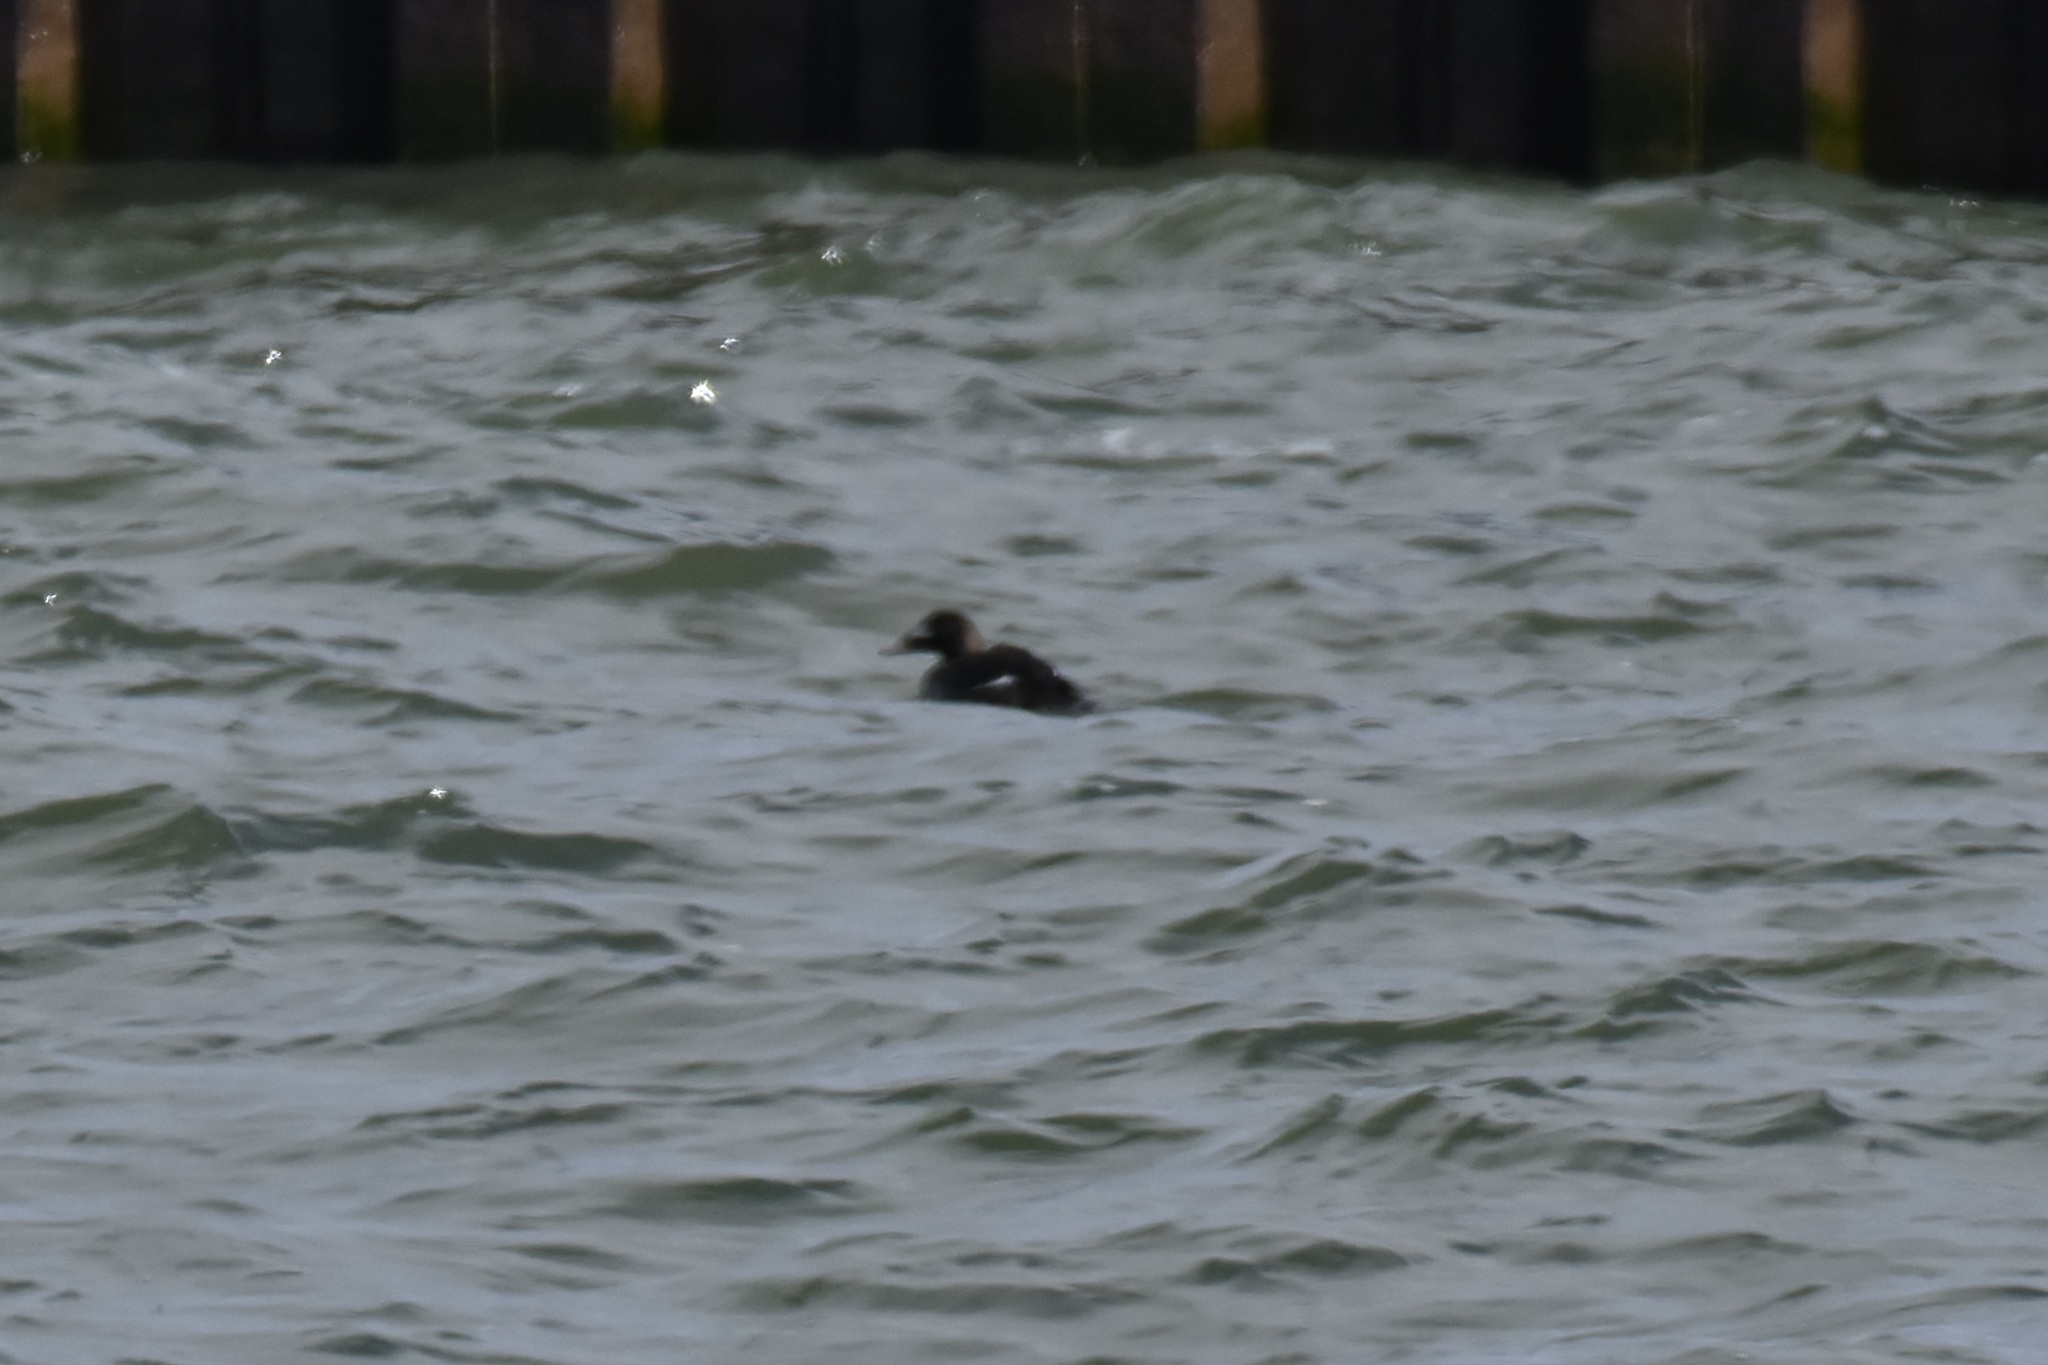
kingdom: Animalia
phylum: Chordata
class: Aves
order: Anseriformes
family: Anatidae
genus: Melanitta
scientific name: Melanitta deglandi
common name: White-winged scoter
